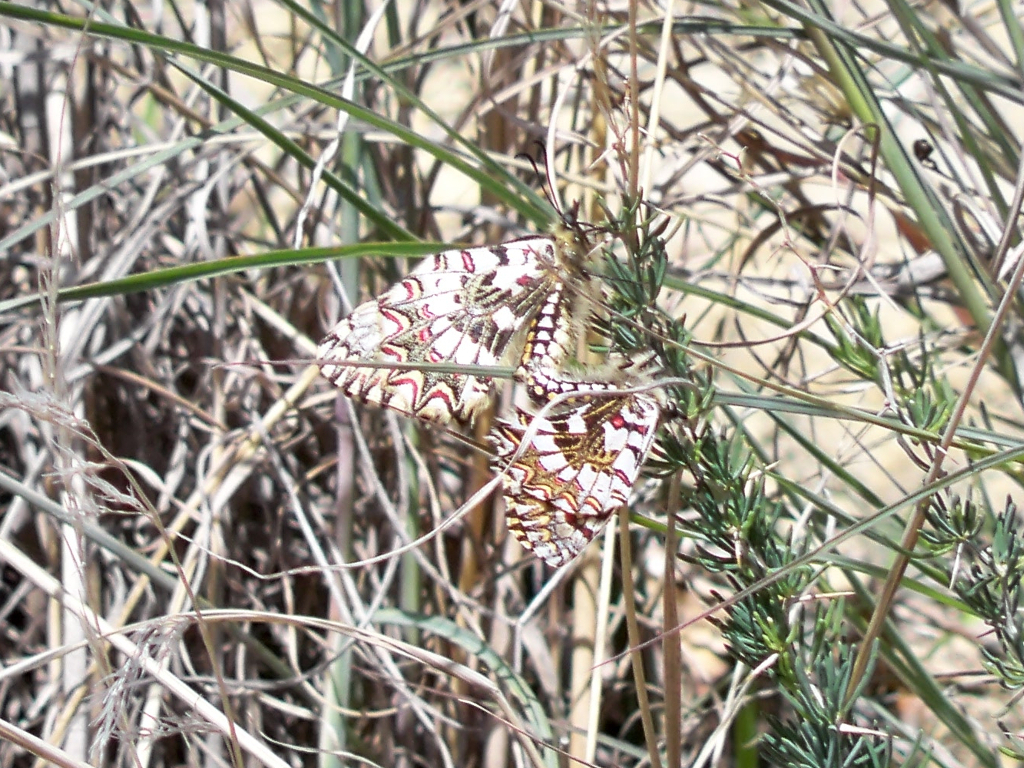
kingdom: Animalia
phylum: Arthropoda
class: Insecta
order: Lepidoptera
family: Papilionidae
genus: Zerynthia
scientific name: Zerynthia rumina
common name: Spanish festoon
